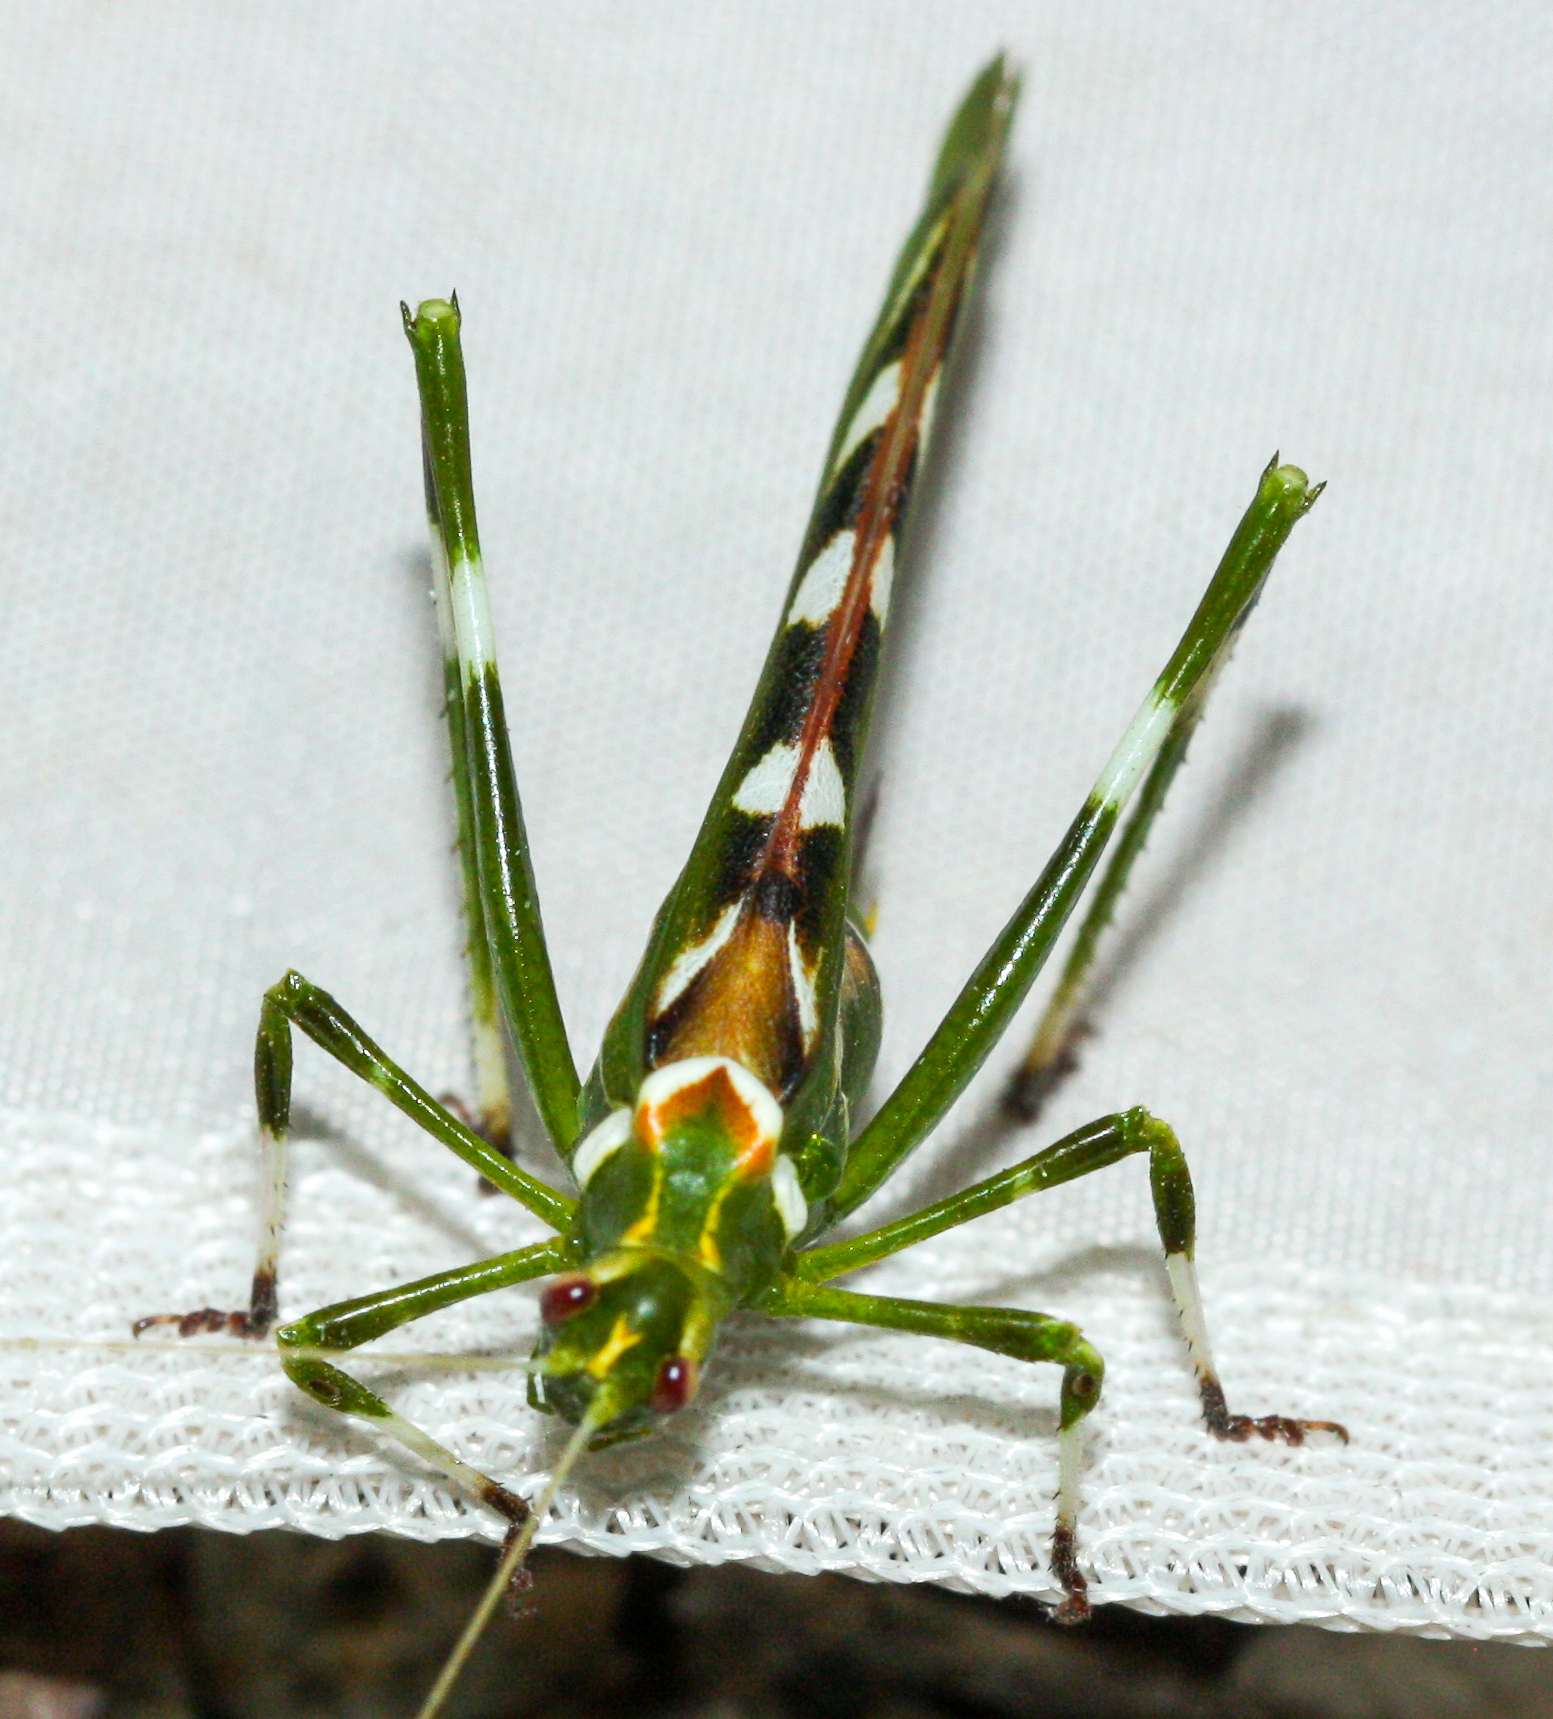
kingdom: Animalia
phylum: Arthropoda
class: Insecta
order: Orthoptera
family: Tettigoniidae
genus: Insara
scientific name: Insara covilleae
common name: Creosote bush katydid
